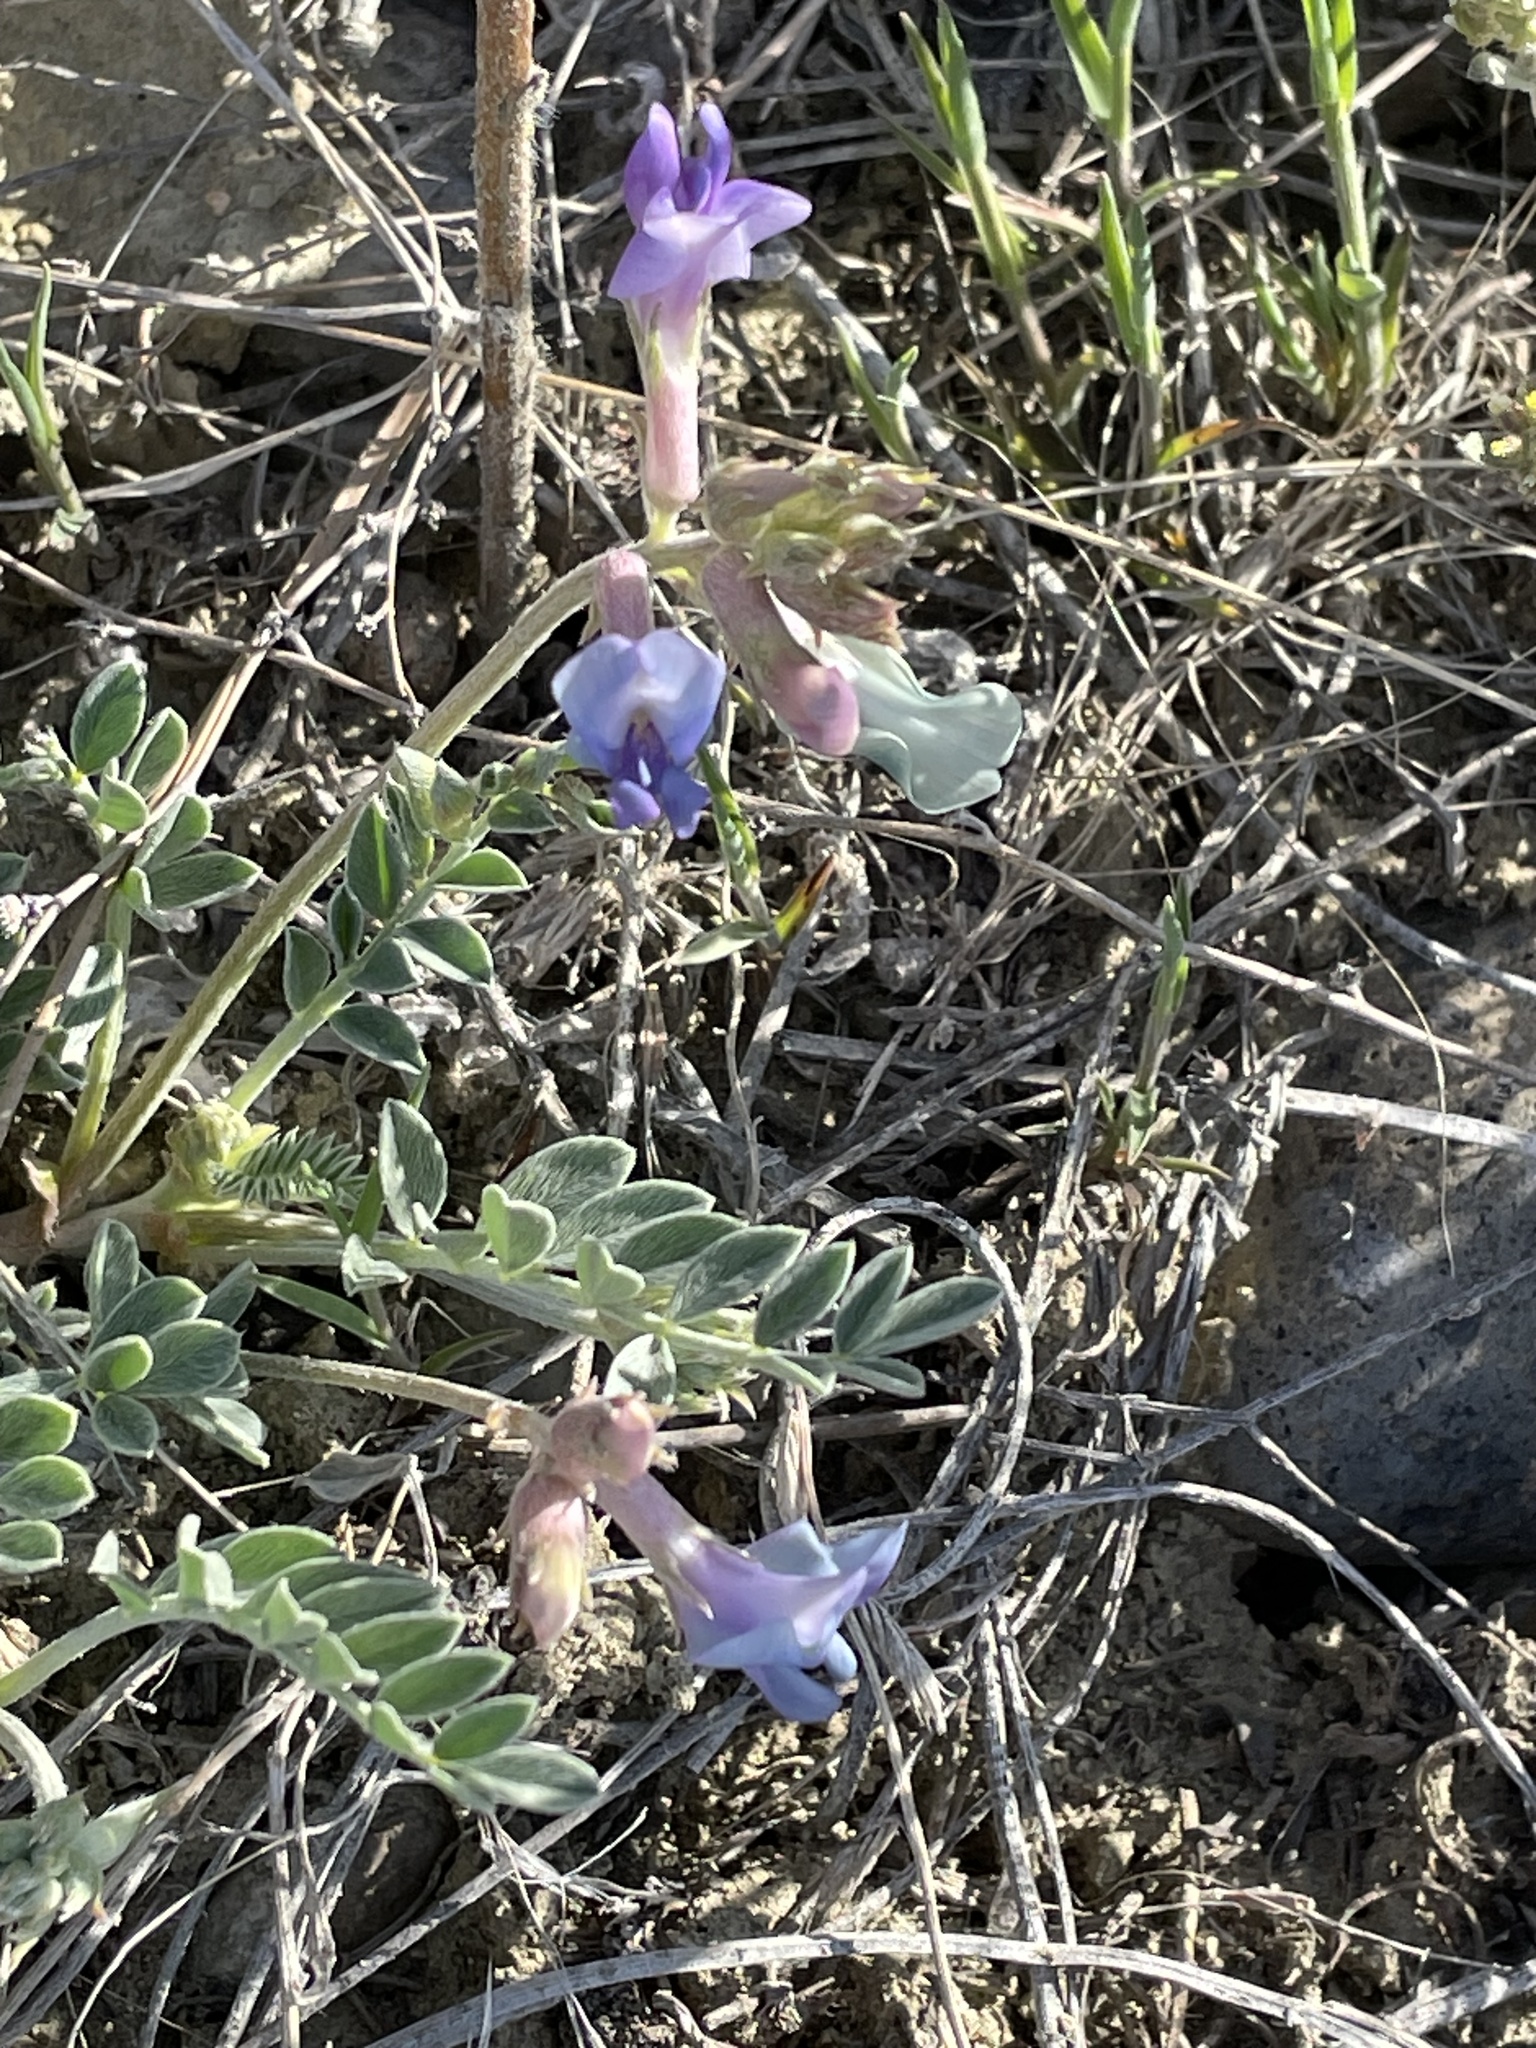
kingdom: Plantae
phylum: Tracheophyta
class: Magnoliopsida
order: Fabales
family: Fabaceae
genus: Astragalus
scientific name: Astragalus missouriensis
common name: Missouri milk-vetch
